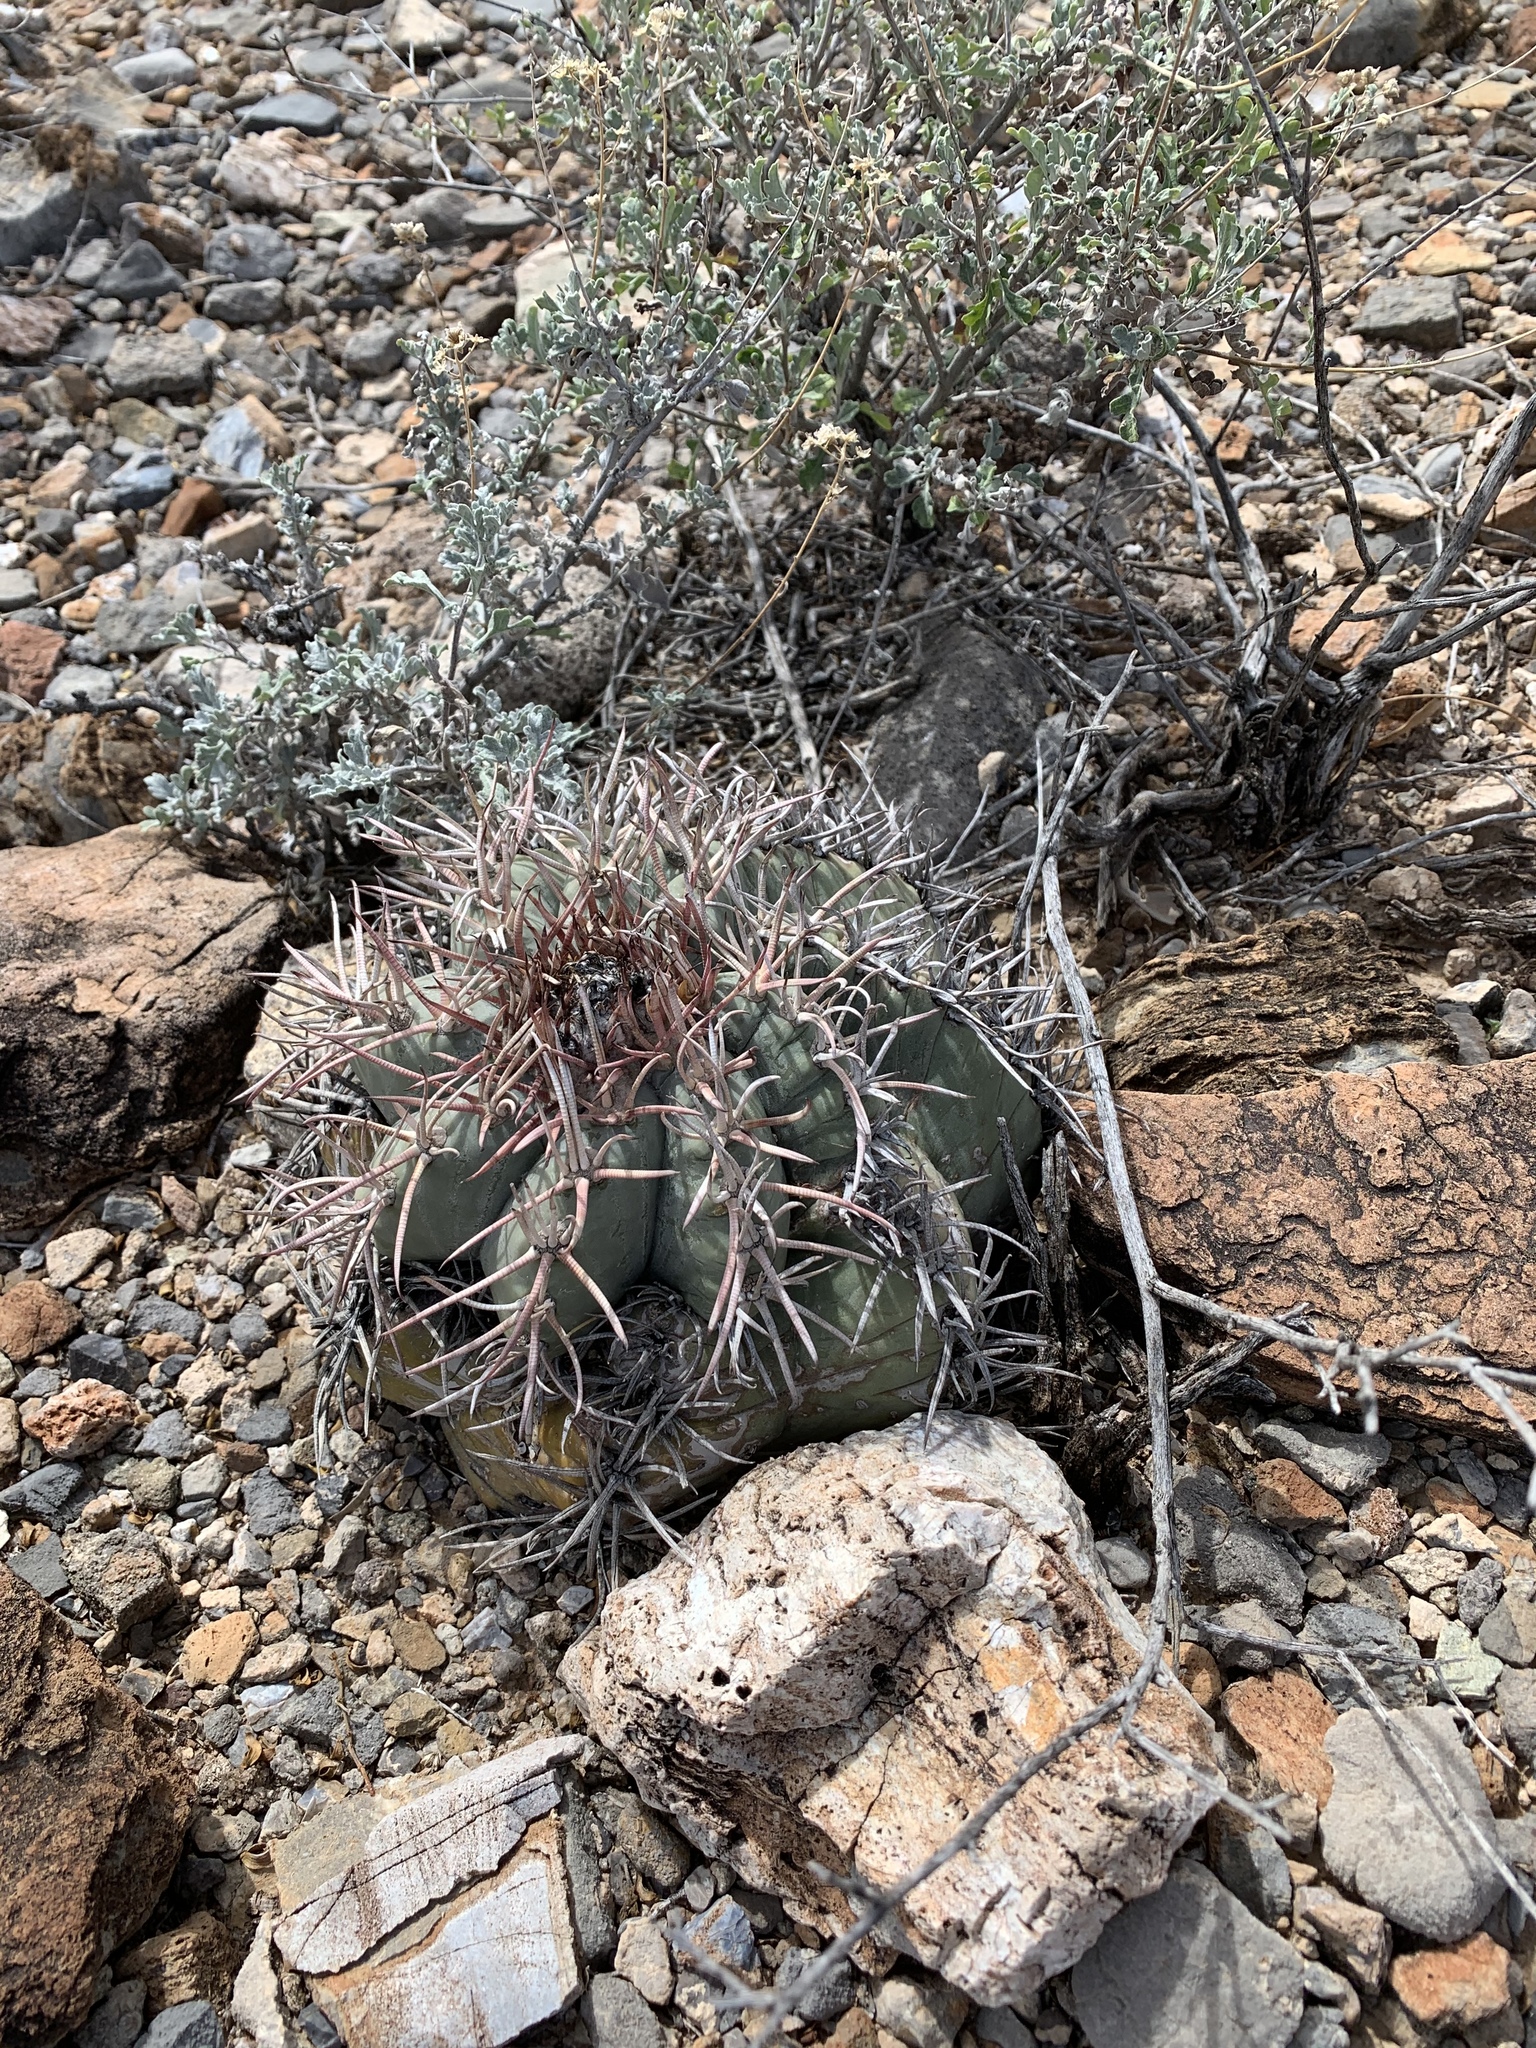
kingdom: Plantae
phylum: Tracheophyta
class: Magnoliopsida
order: Caryophyllales
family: Cactaceae
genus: Echinocactus
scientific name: Echinocactus horizonthalonius
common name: Devilshead
